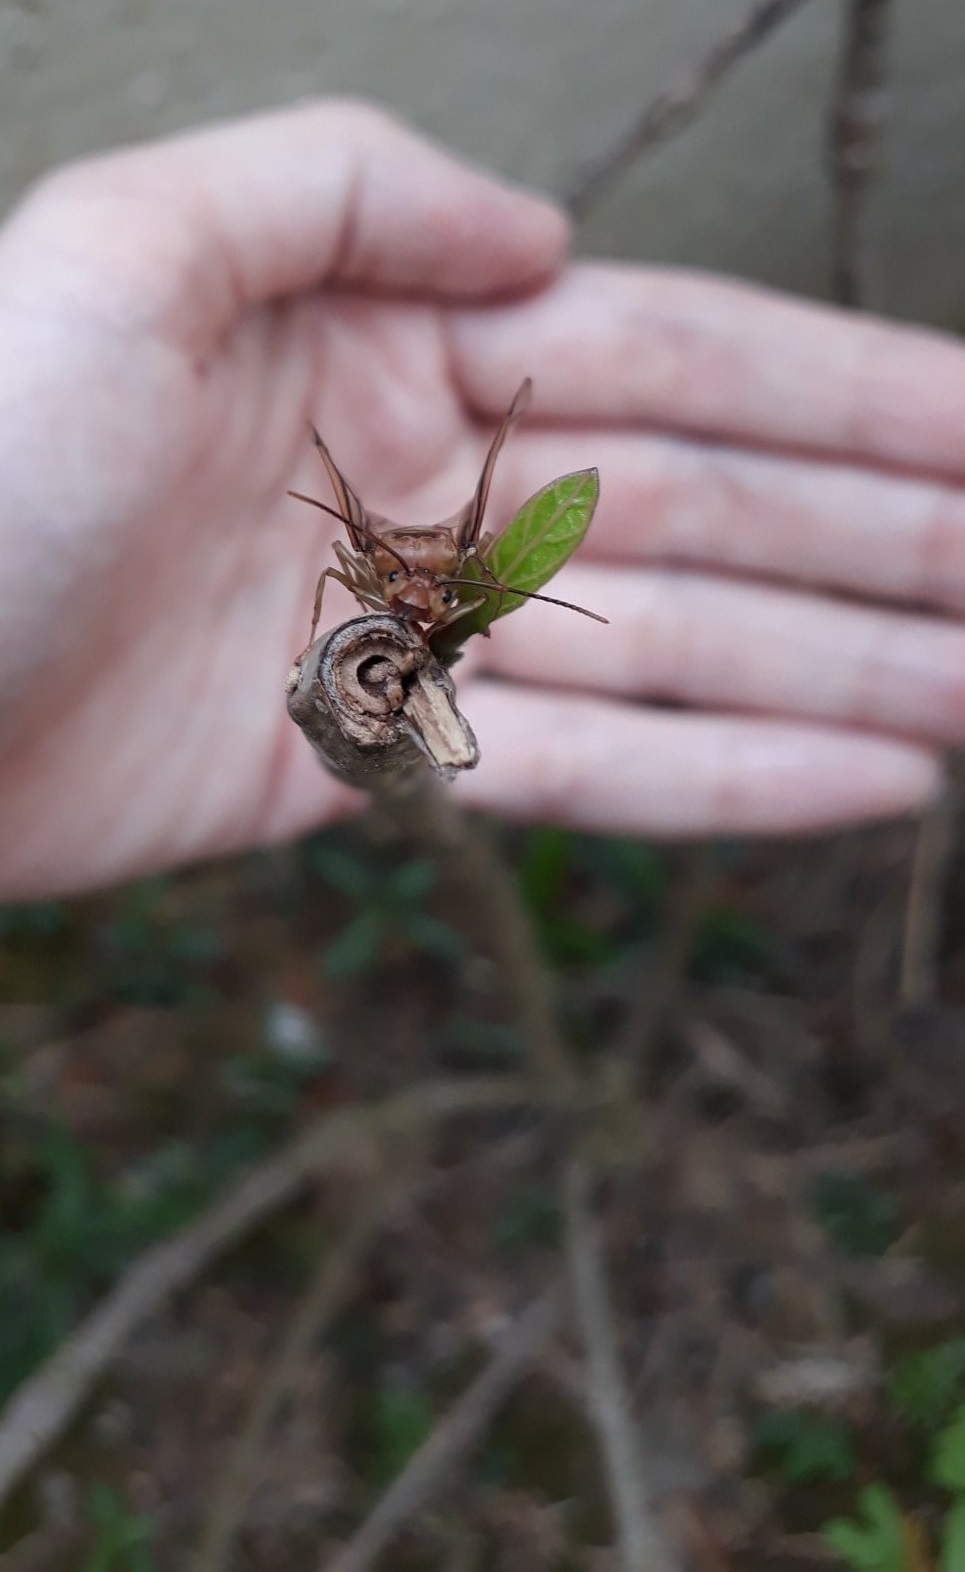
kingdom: Animalia
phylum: Arthropoda
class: Insecta
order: Hymenoptera
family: Formicidae
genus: Oecophylla
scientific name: Oecophylla smaragdina
